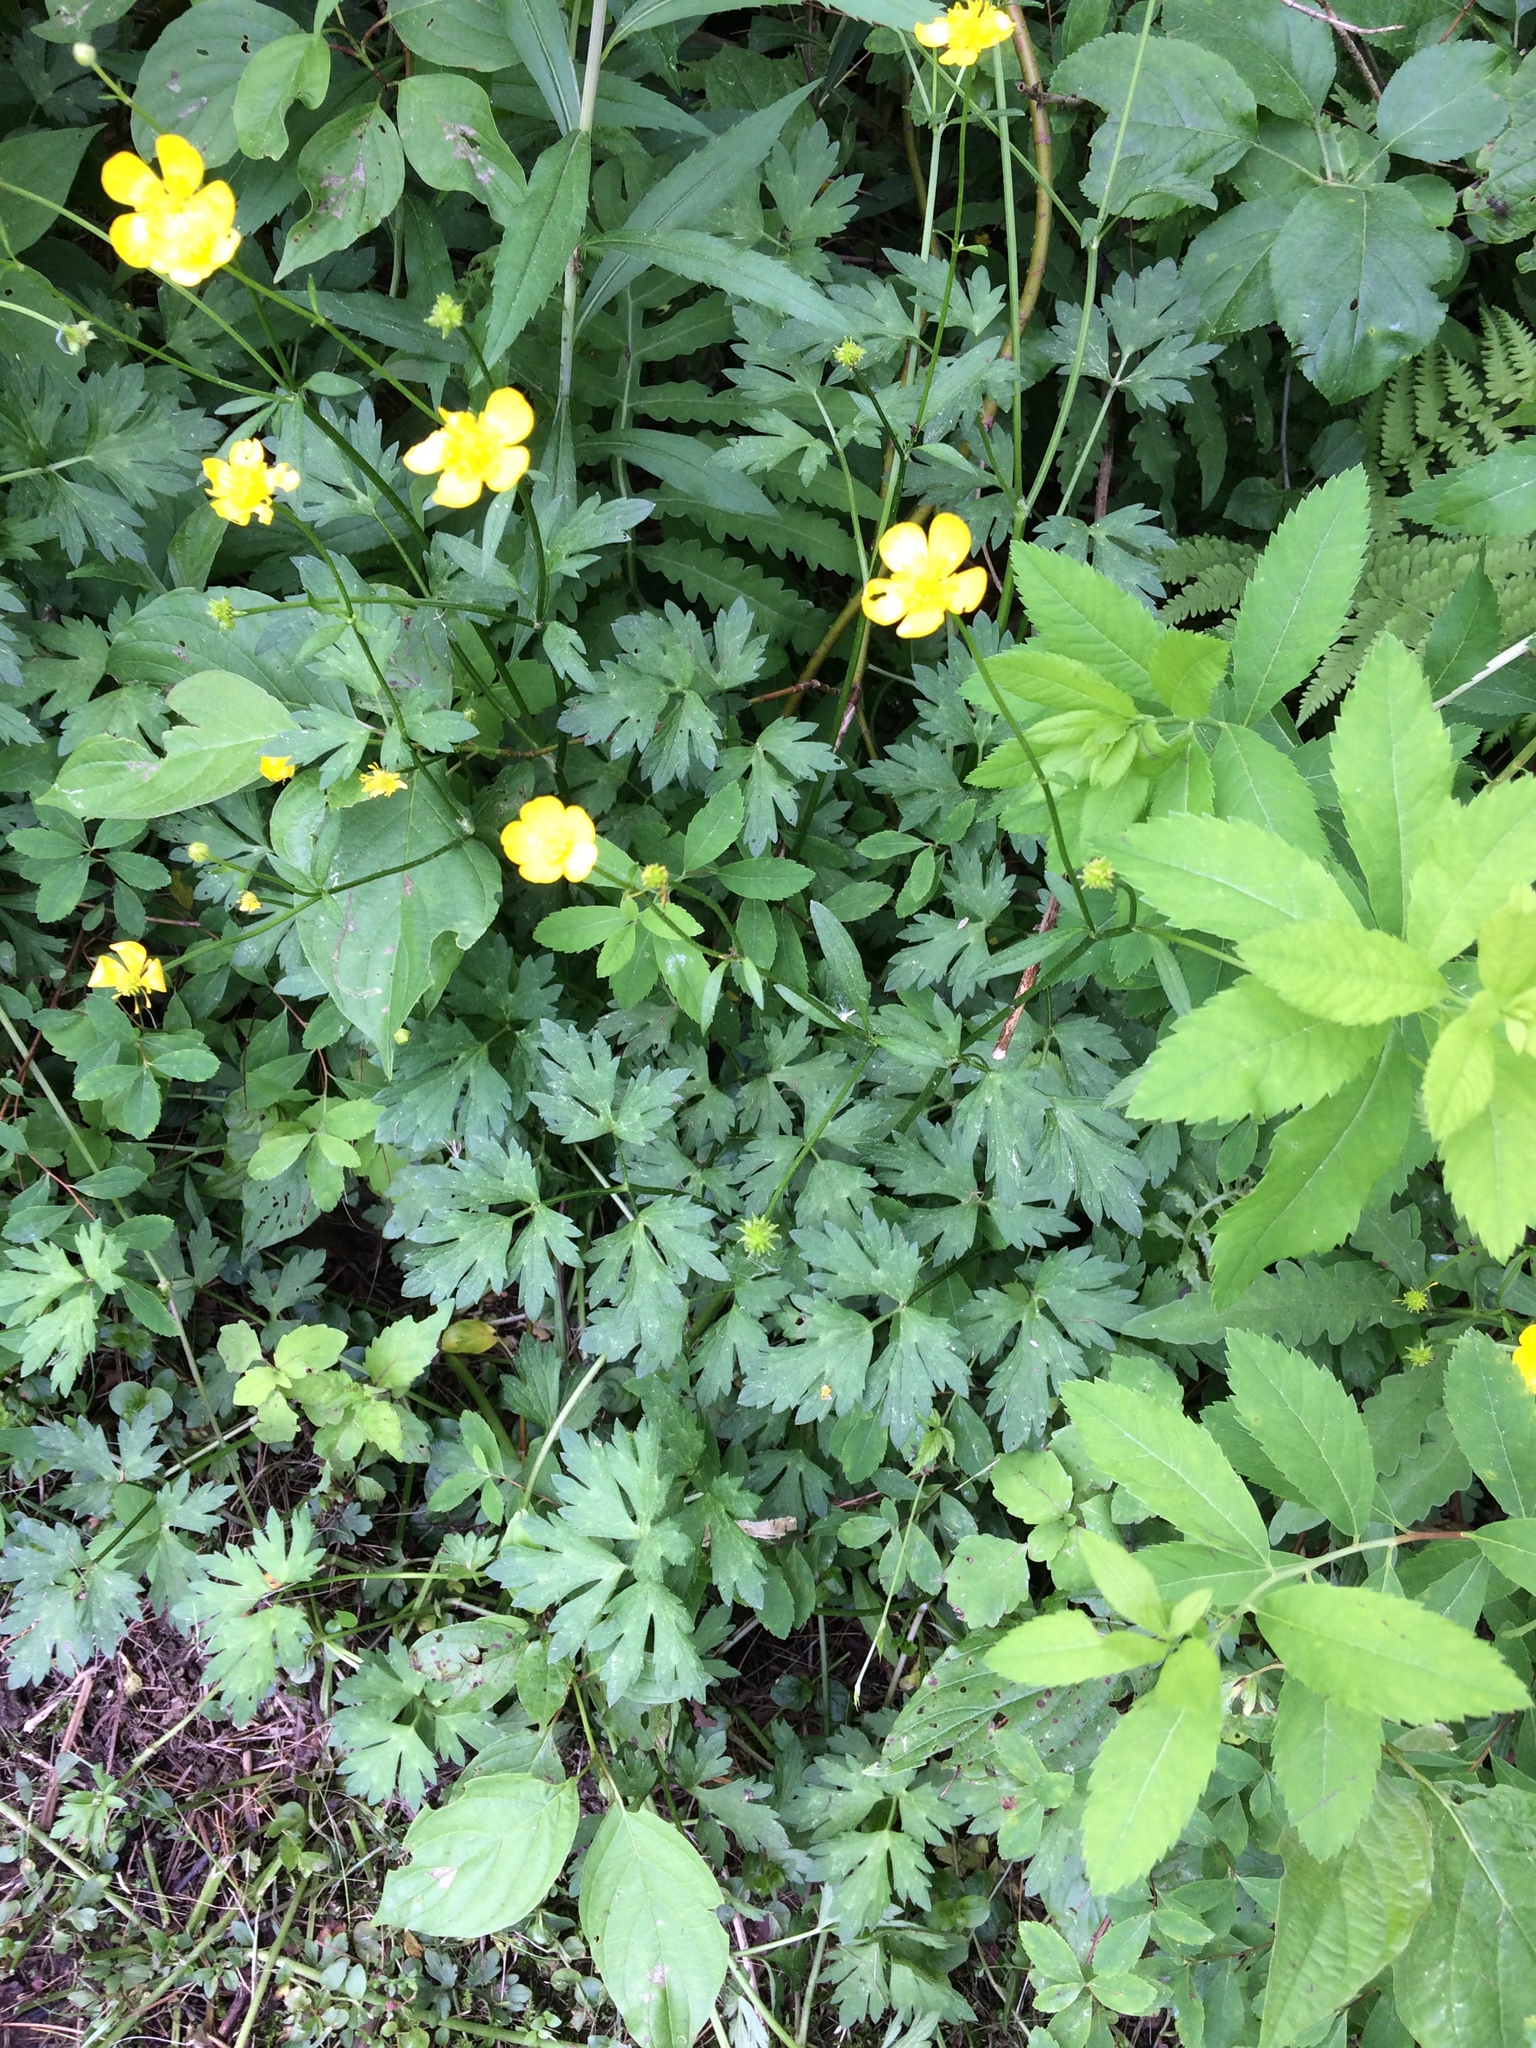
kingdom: Plantae
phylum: Tracheophyta
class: Magnoliopsida
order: Ranunculales
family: Ranunculaceae
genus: Ranunculus
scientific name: Ranunculus repens
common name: Creeping buttercup
